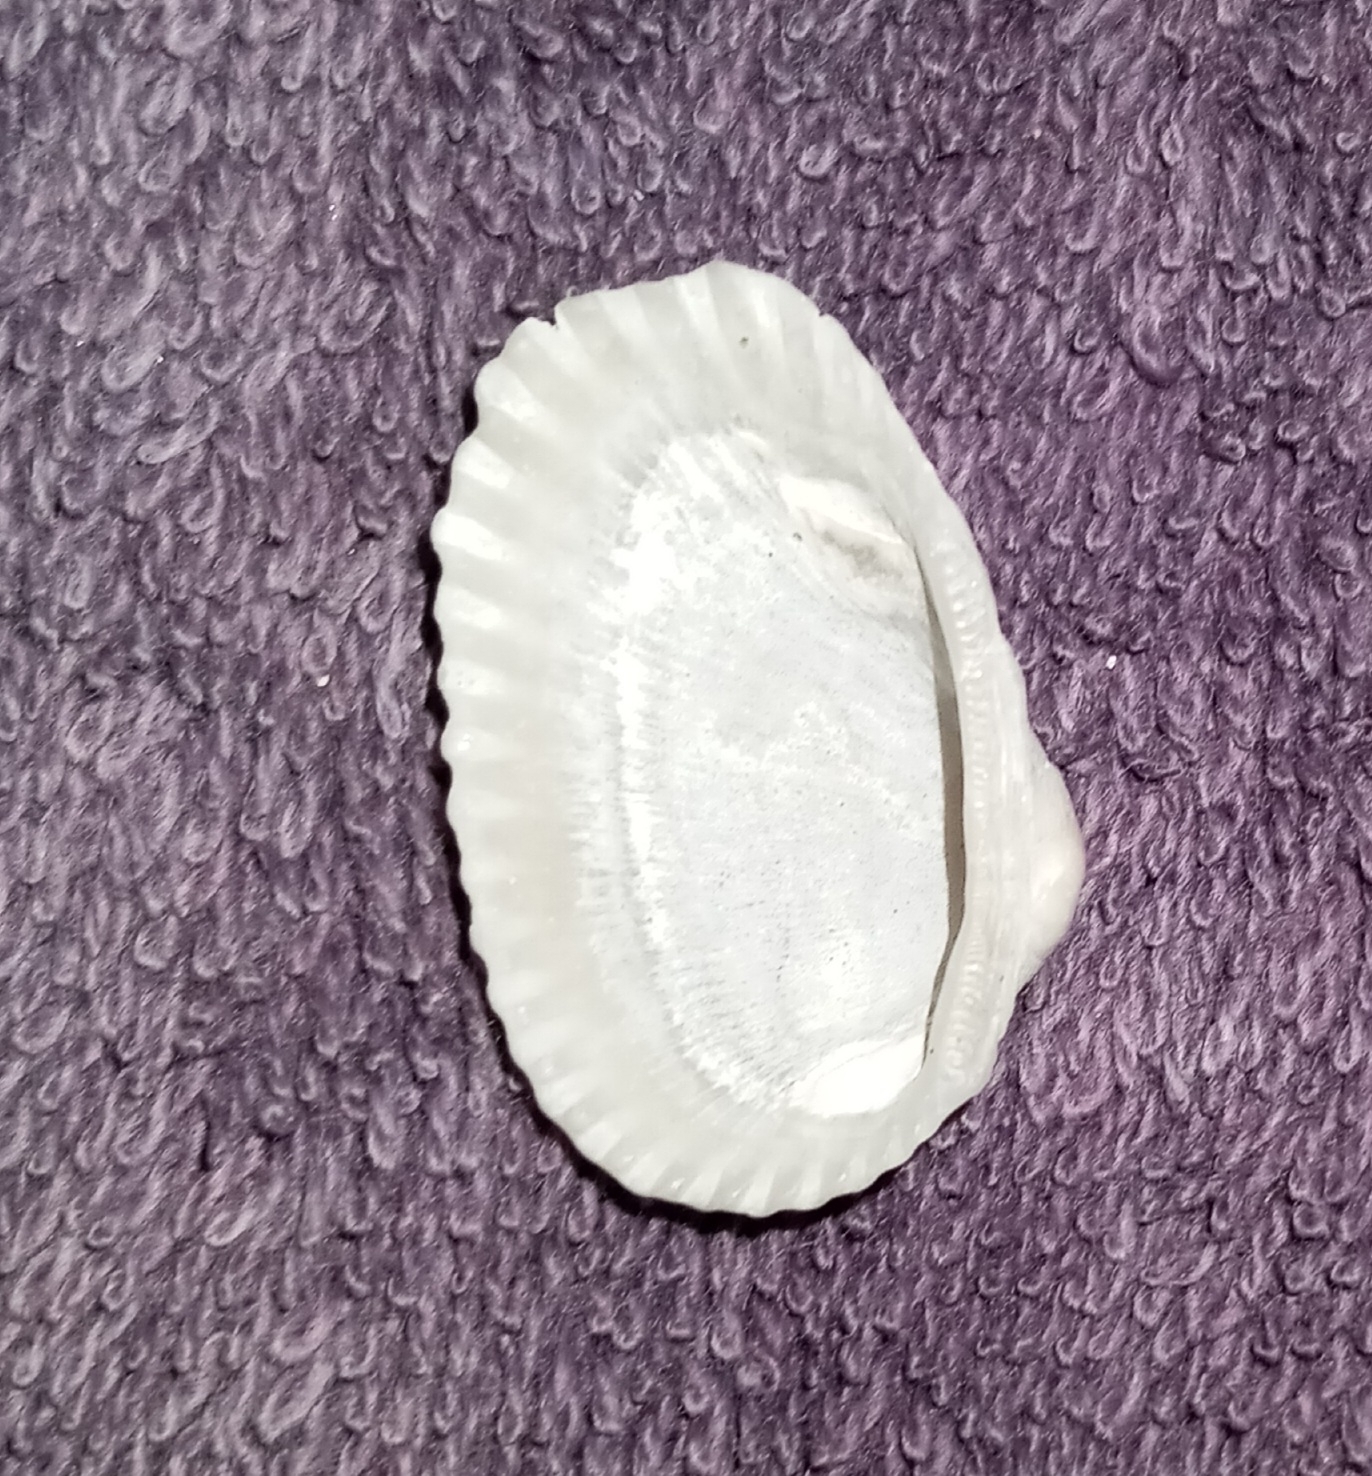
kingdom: Animalia
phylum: Mollusca
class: Bivalvia
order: Arcida
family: Arcidae
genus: Anadara
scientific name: Anadara transversa
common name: Transverse ark
